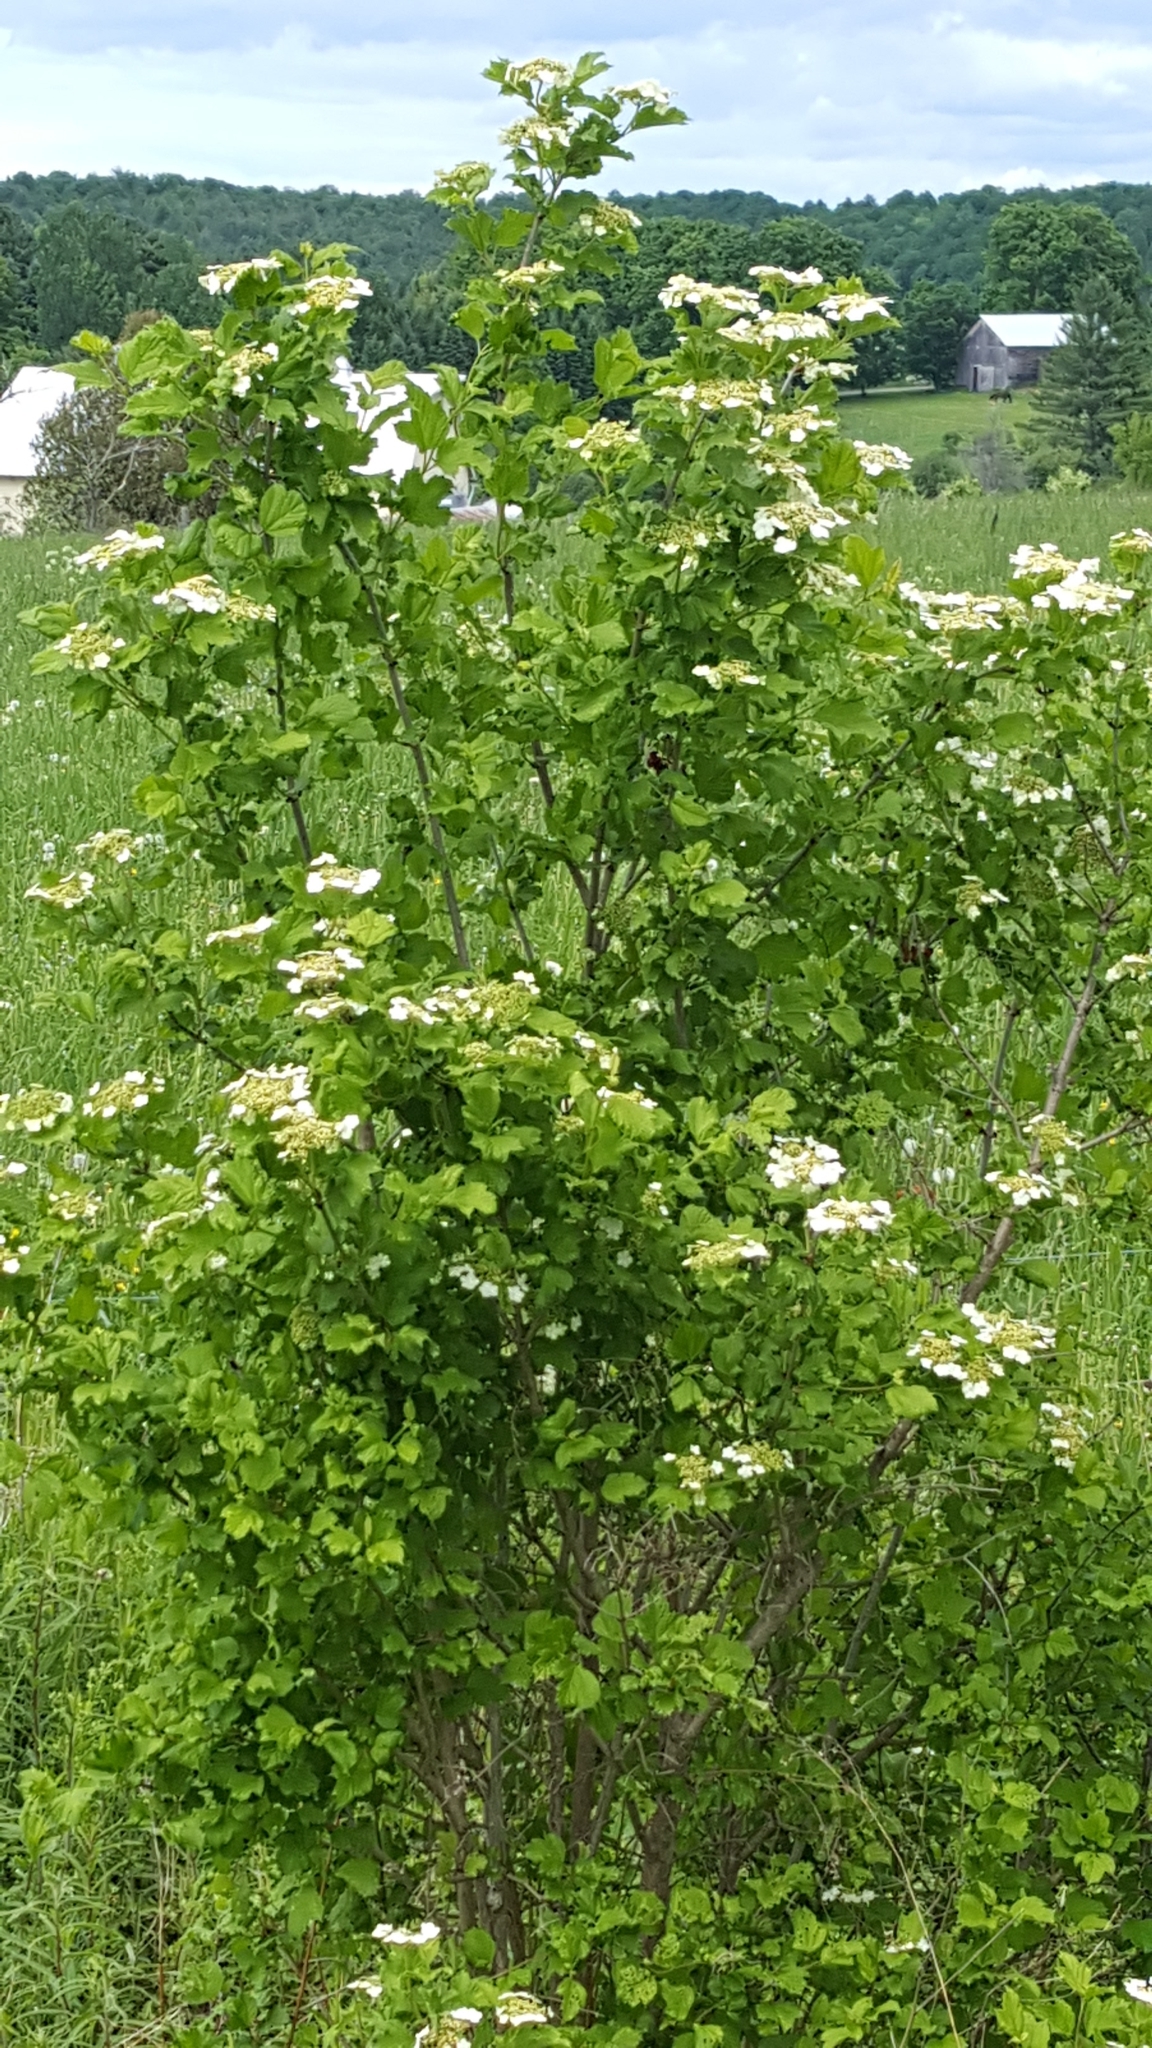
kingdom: Plantae
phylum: Tracheophyta
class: Magnoliopsida
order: Dipsacales
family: Viburnaceae
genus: Viburnum
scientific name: Viburnum opulus
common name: Guelder-rose
